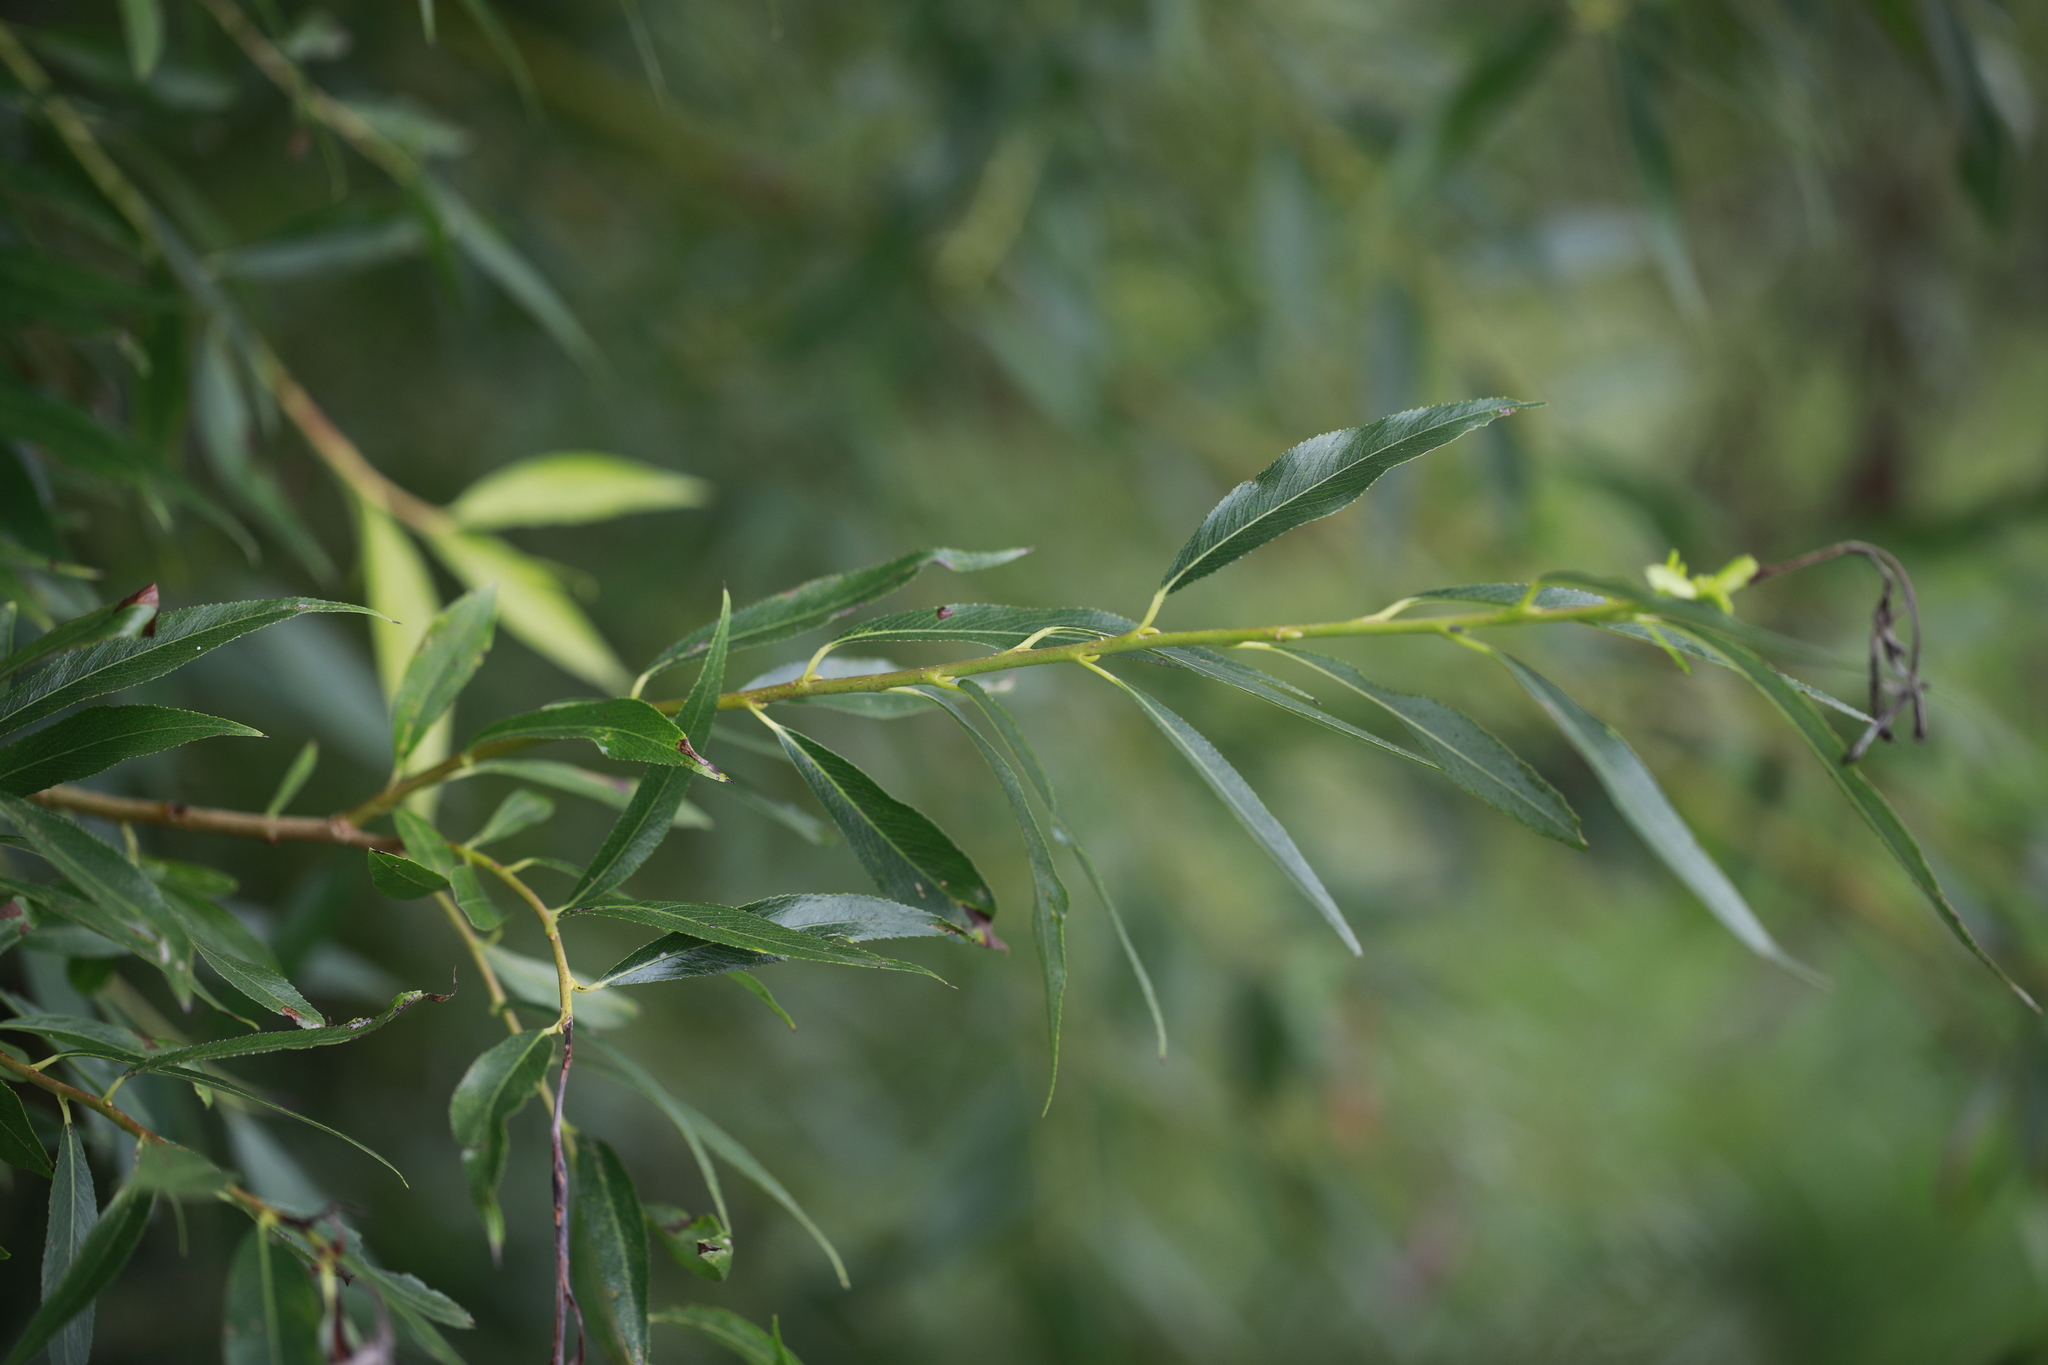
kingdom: Plantae
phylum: Tracheophyta
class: Magnoliopsida
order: Malpighiales
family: Salicaceae
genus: Salix
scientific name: Salix fragilis
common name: Crack willow
